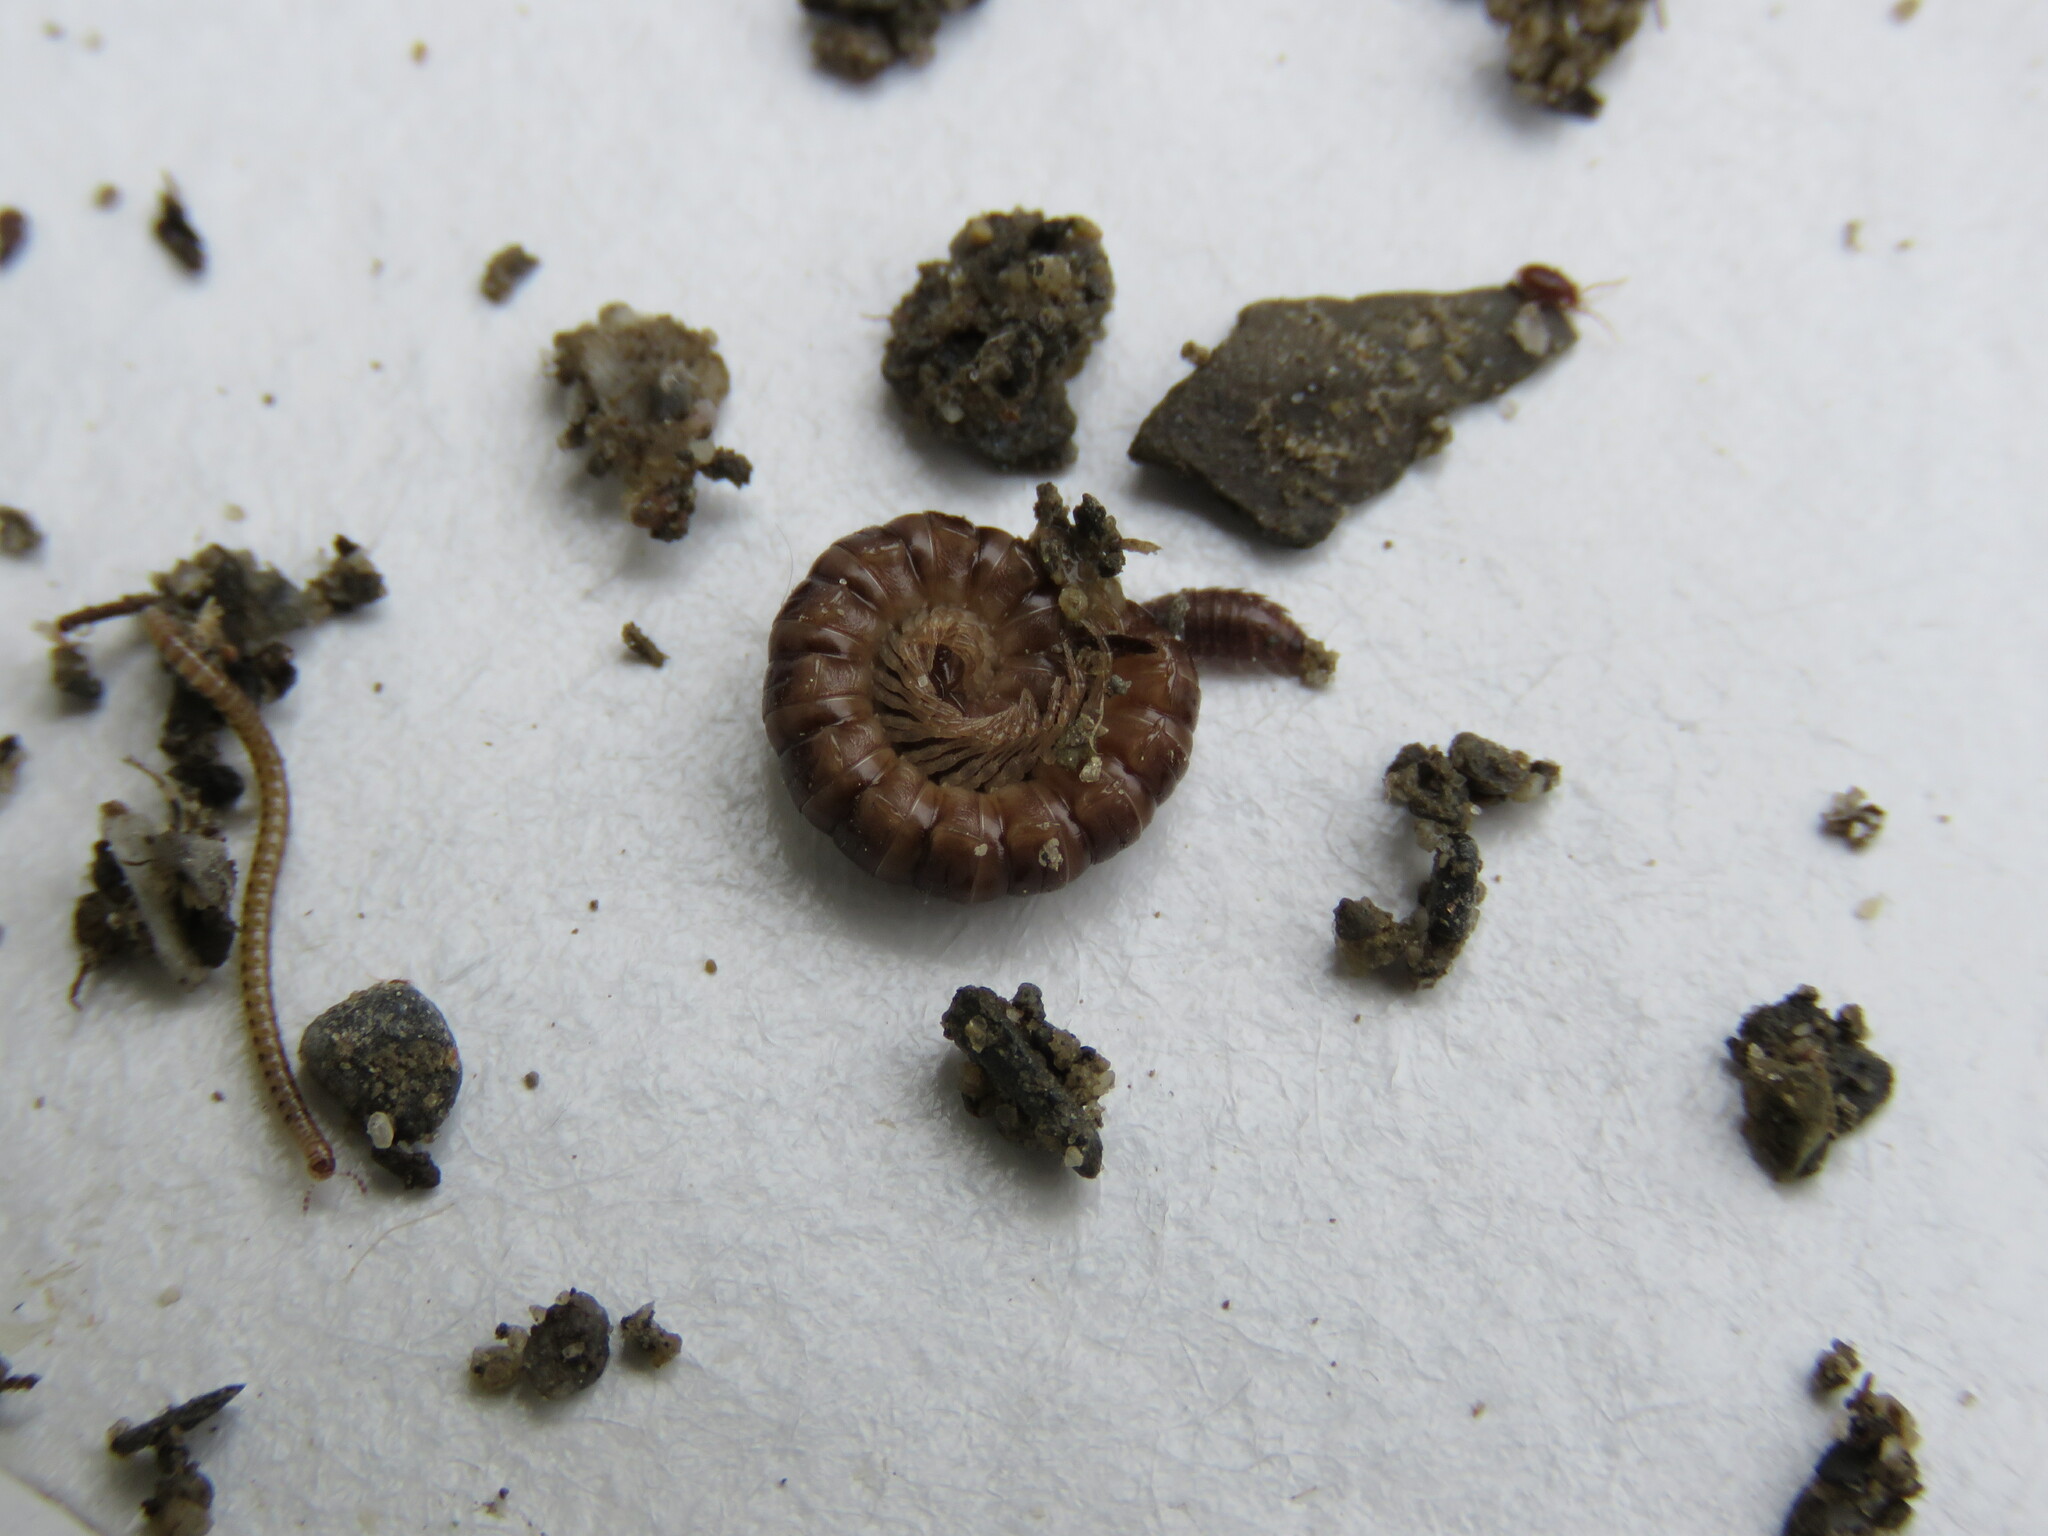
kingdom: Animalia
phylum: Arthropoda
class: Diplopoda
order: Polydesmida
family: Paradoxosomatidae
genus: Oxidus
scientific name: Oxidus gracilis
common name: Greenhouse millipede
